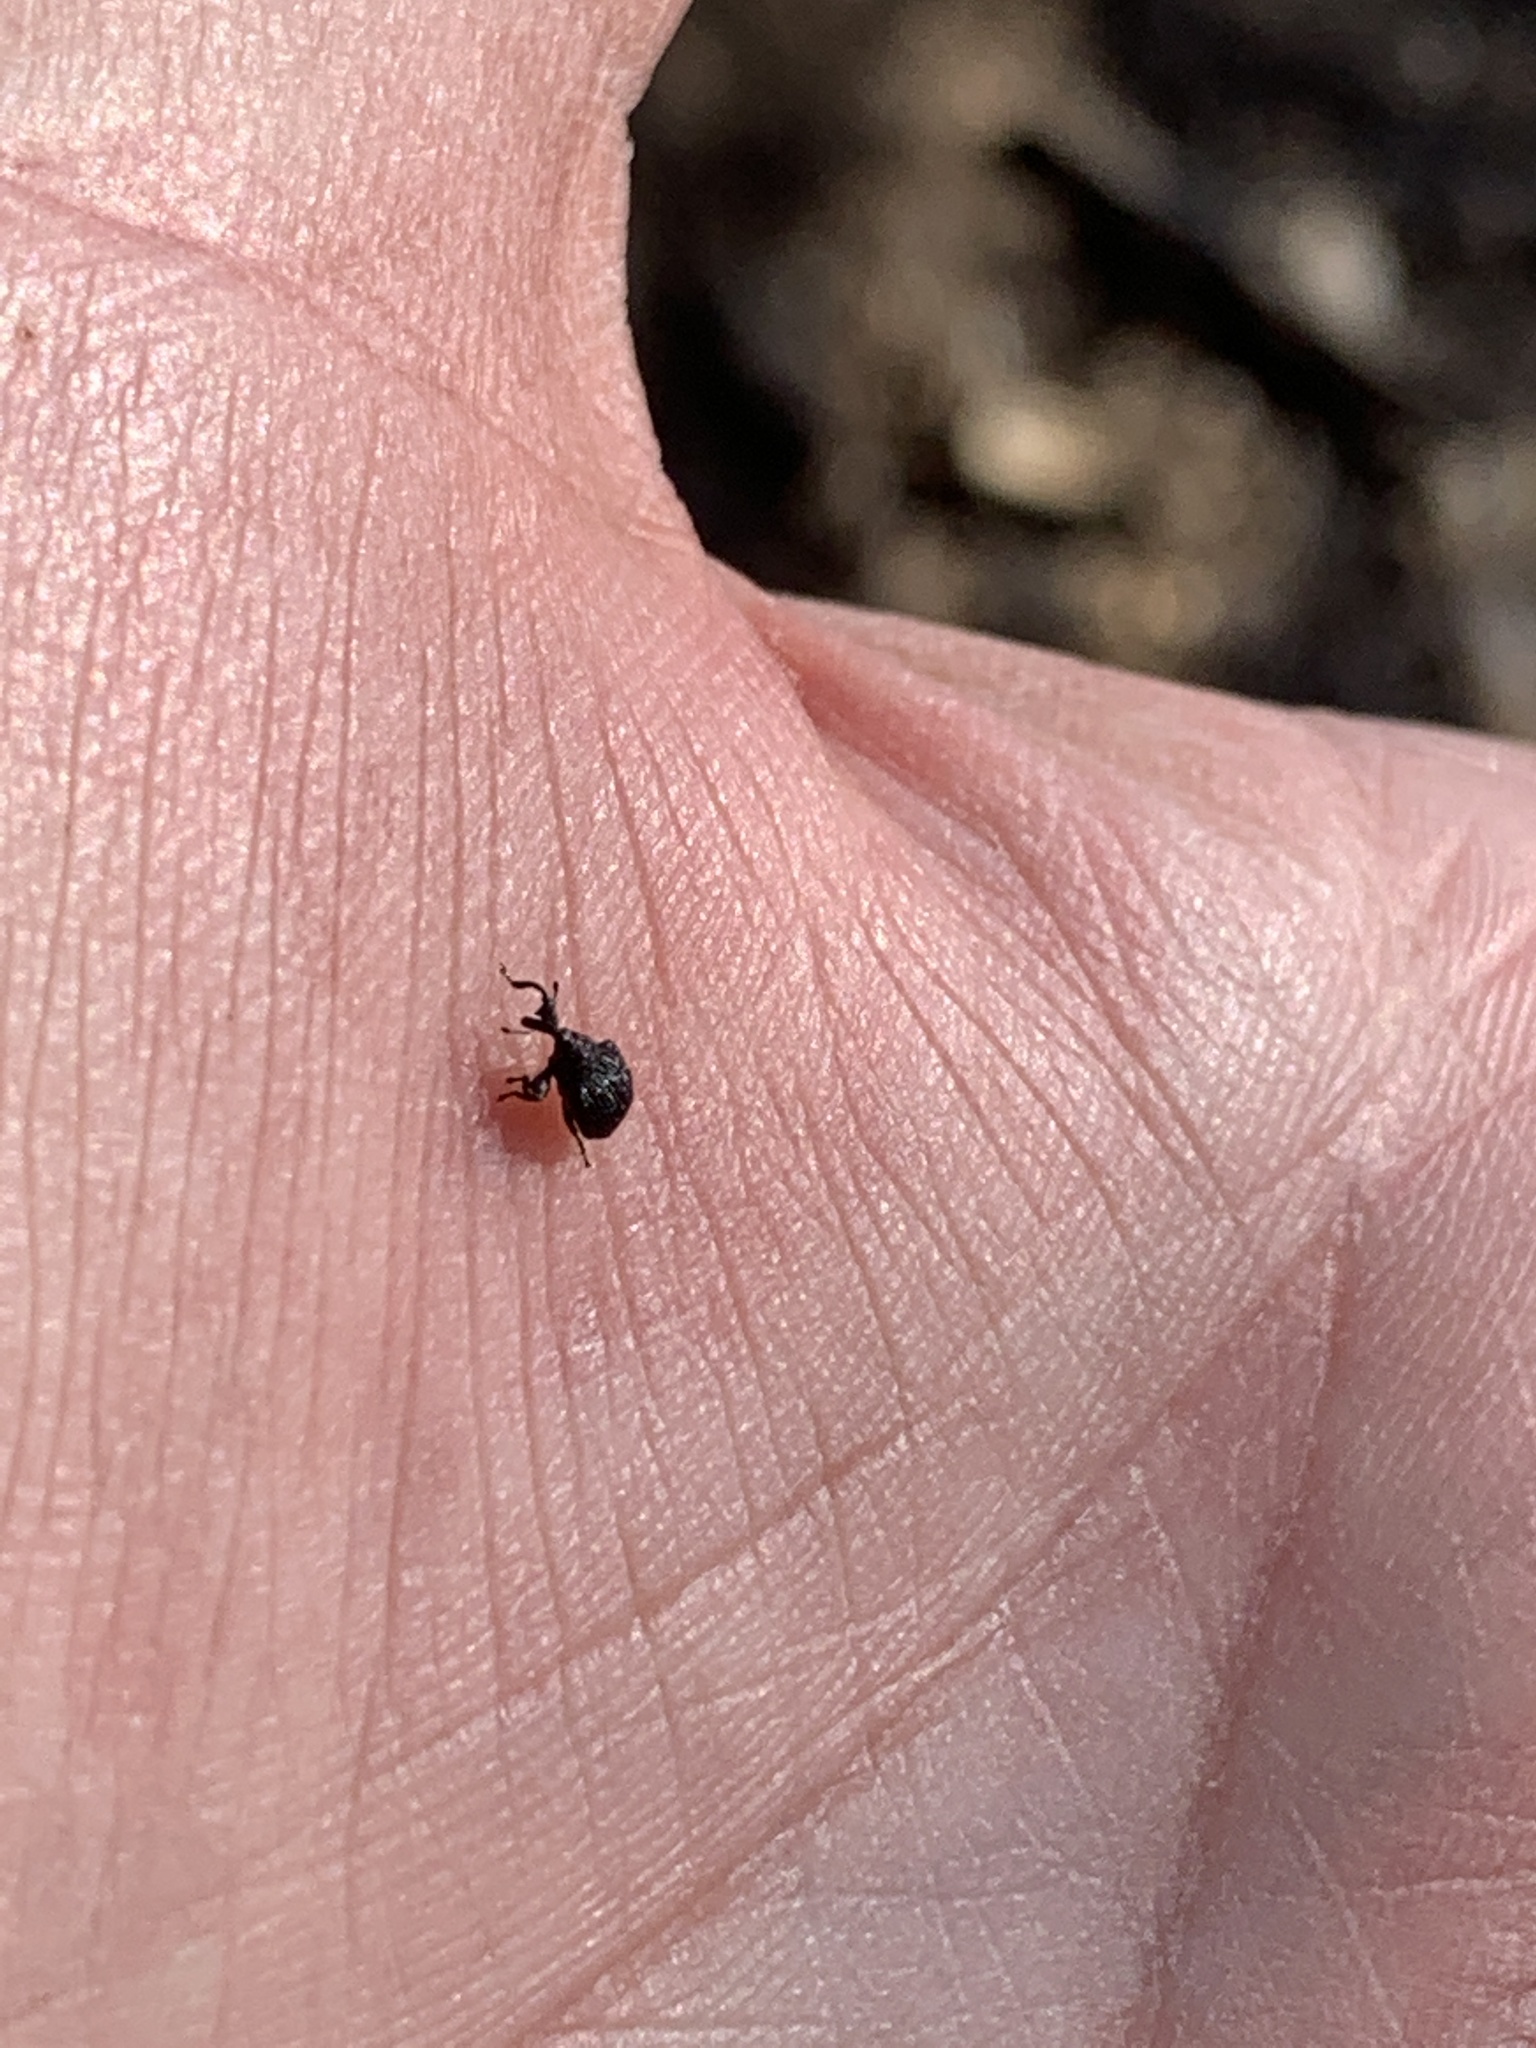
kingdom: Animalia
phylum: Arthropoda
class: Insecta
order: Coleoptera
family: Curculionidae
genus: Odontopus
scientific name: Odontopus calceatus
